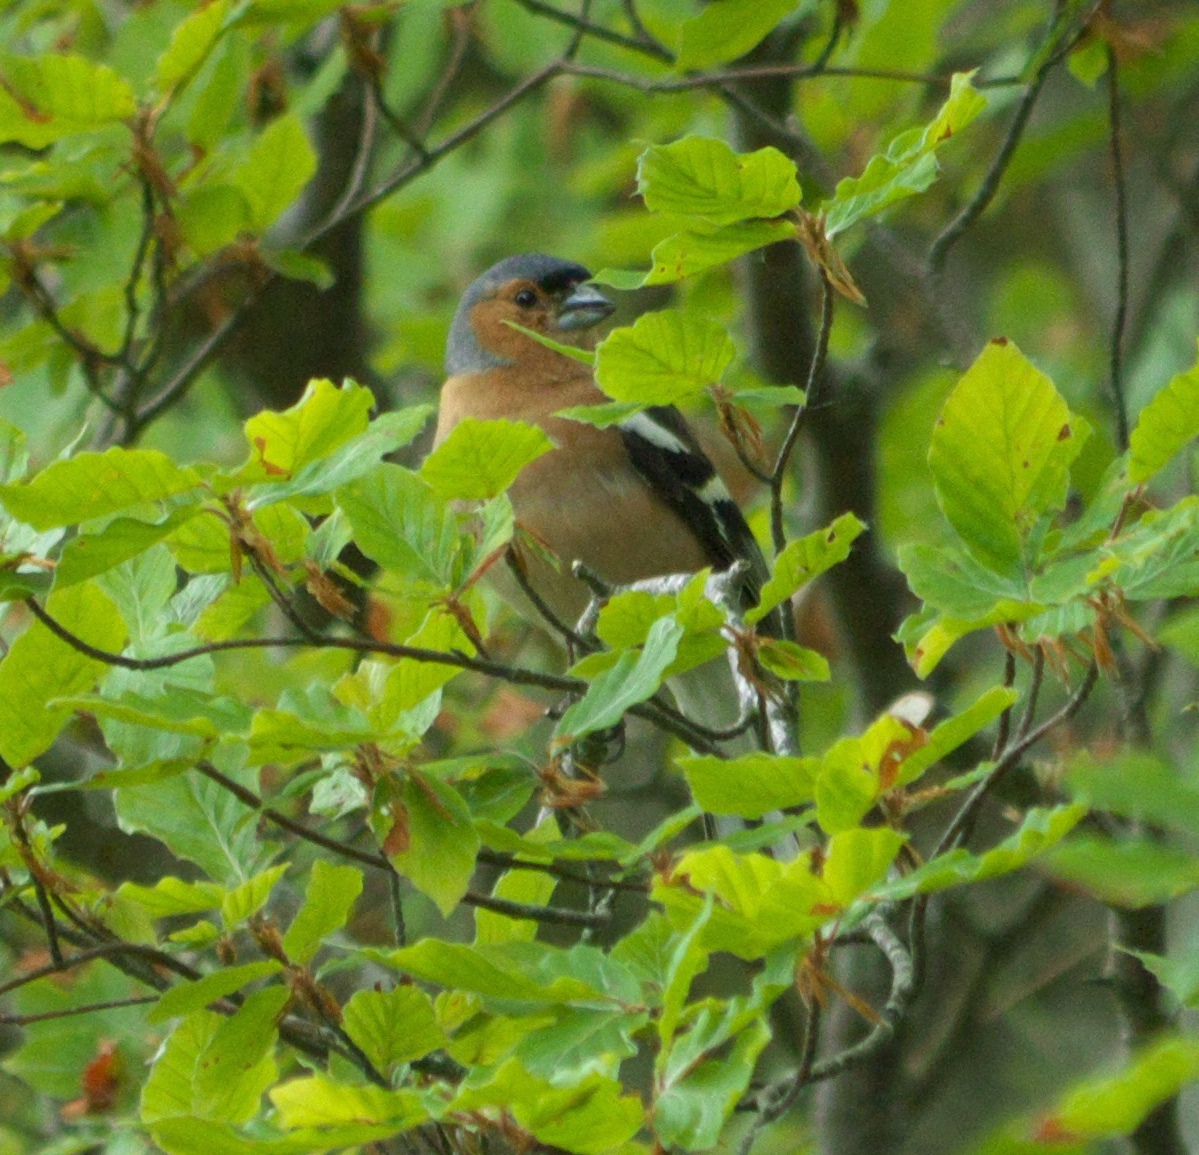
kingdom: Animalia
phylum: Chordata
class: Aves
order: Passeriformes
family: Fringillidae
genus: Fringilla
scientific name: Fringilla coelebs
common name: Common chaffinch
